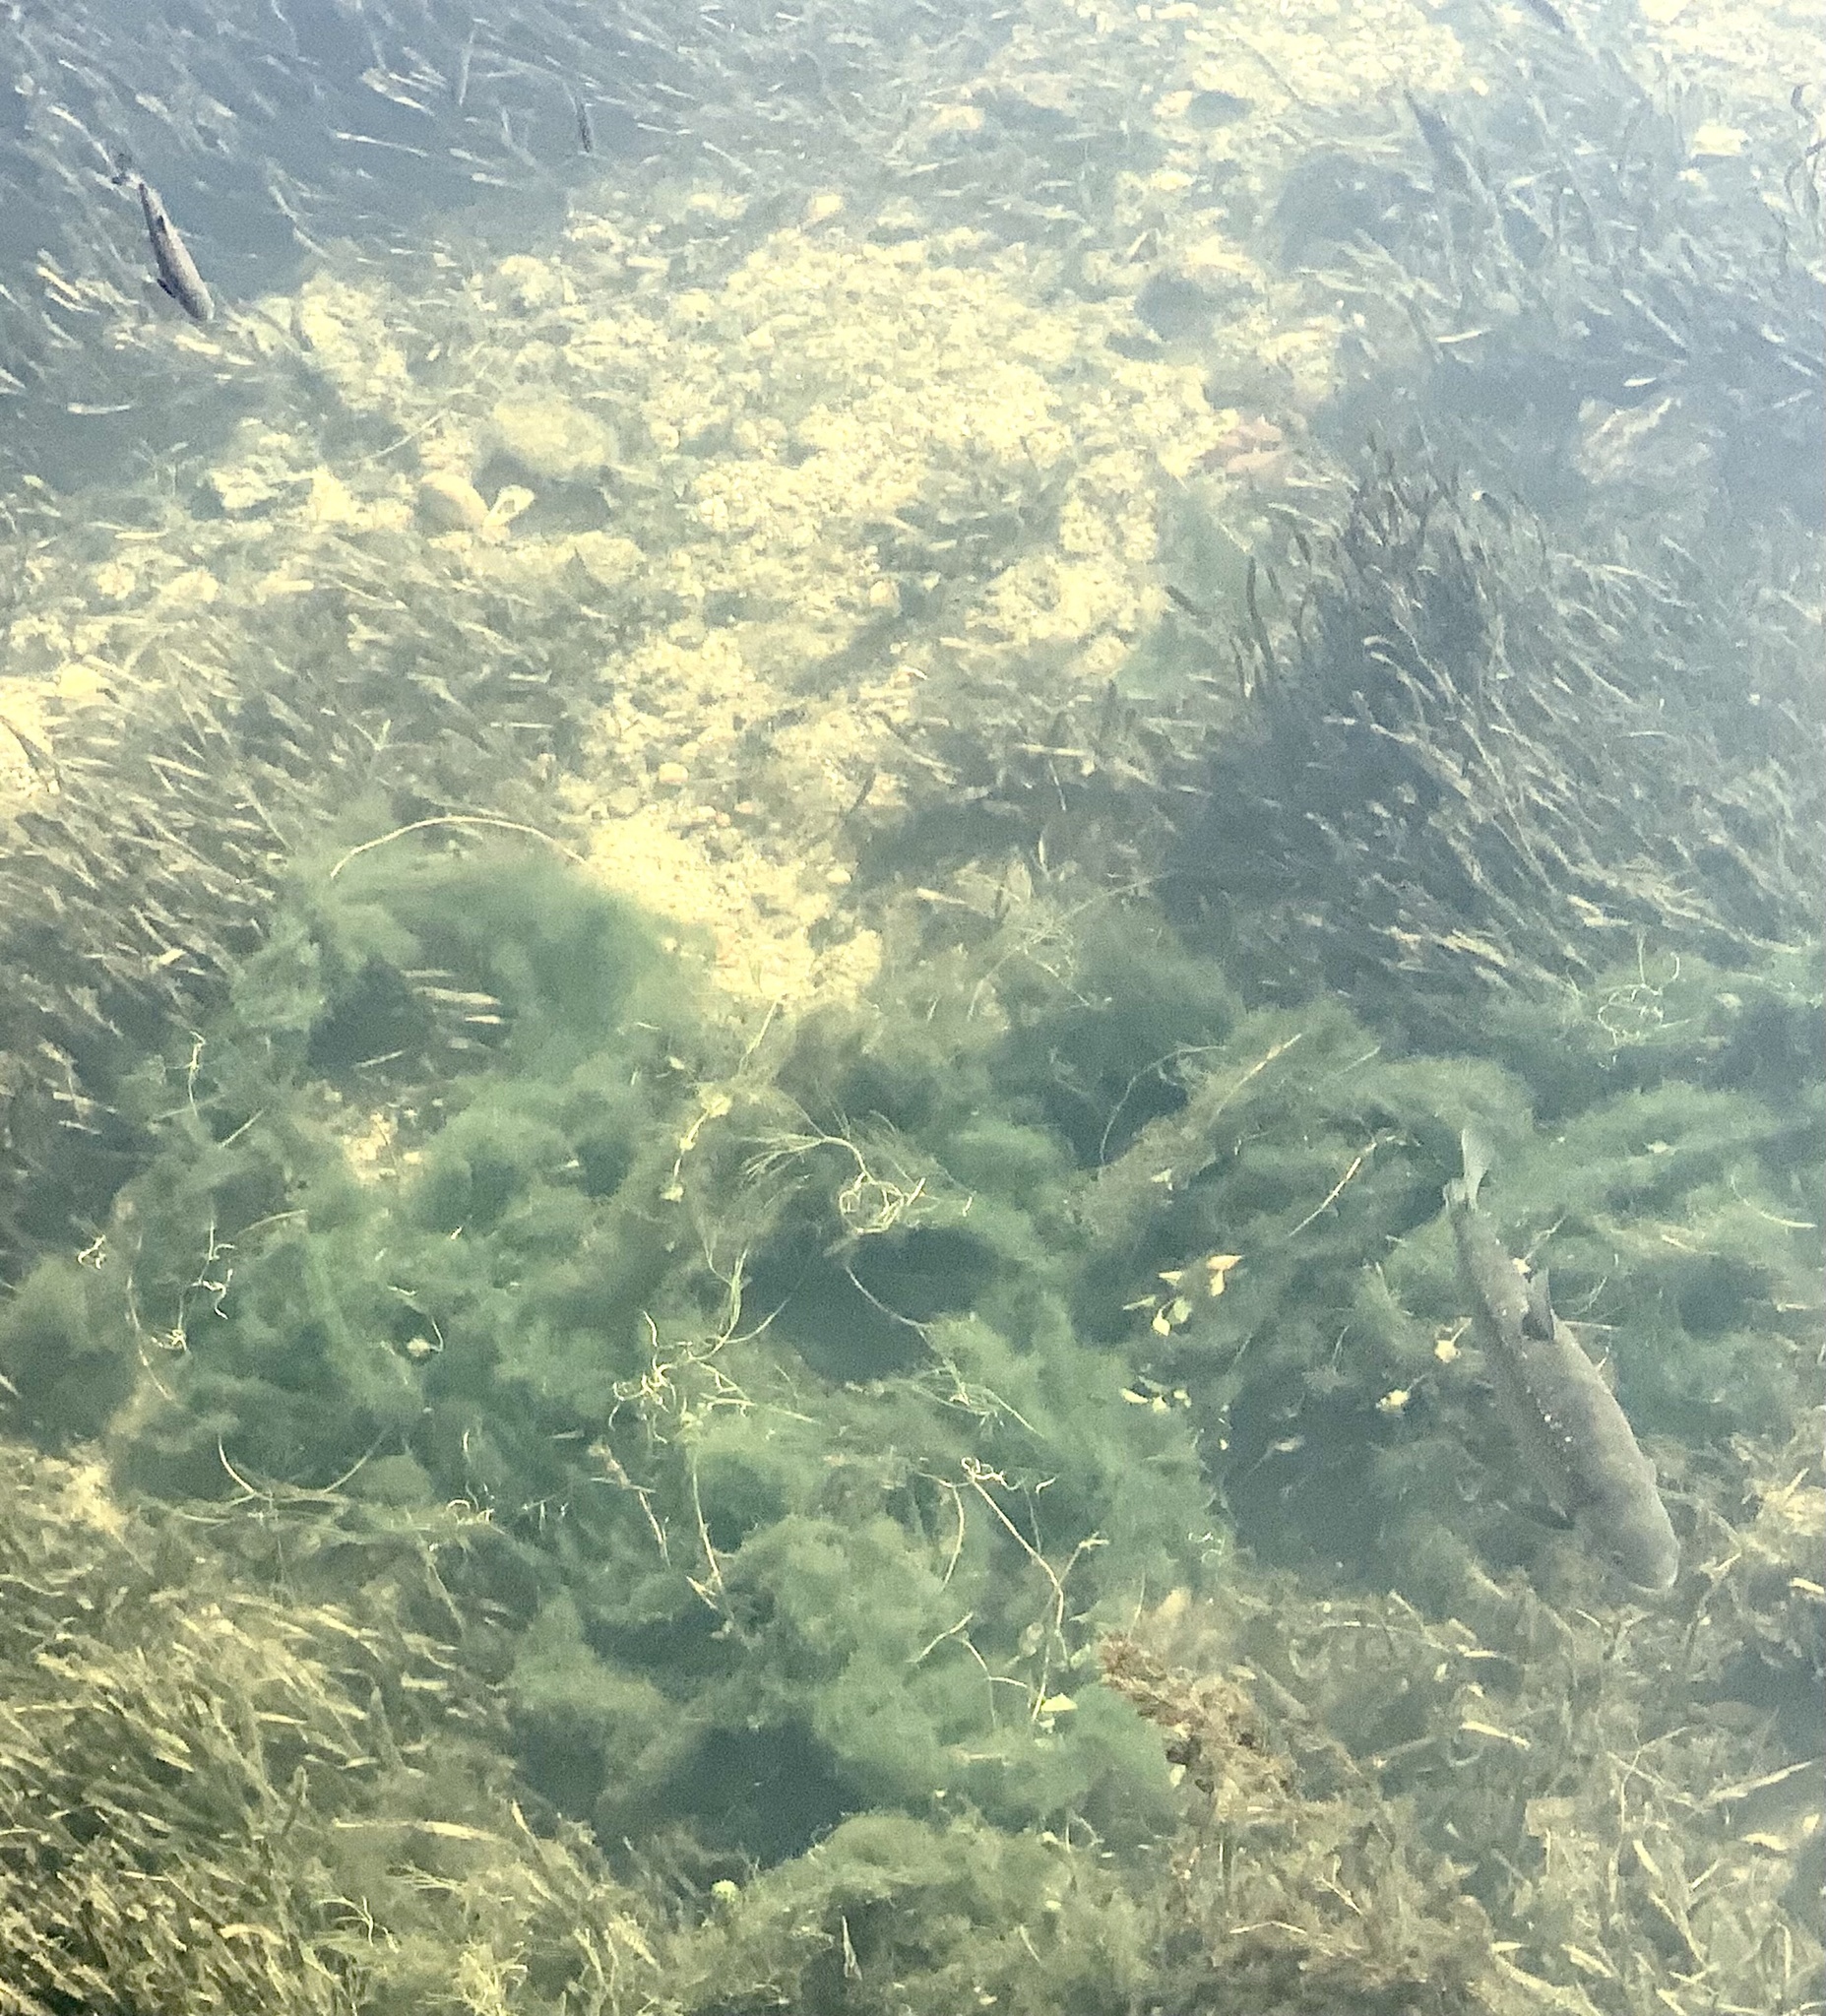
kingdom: Animalia
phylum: Chordata
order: Cypriniformes
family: Cyprinidae
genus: Squalius
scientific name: Squalius squalus
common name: Italian chub
